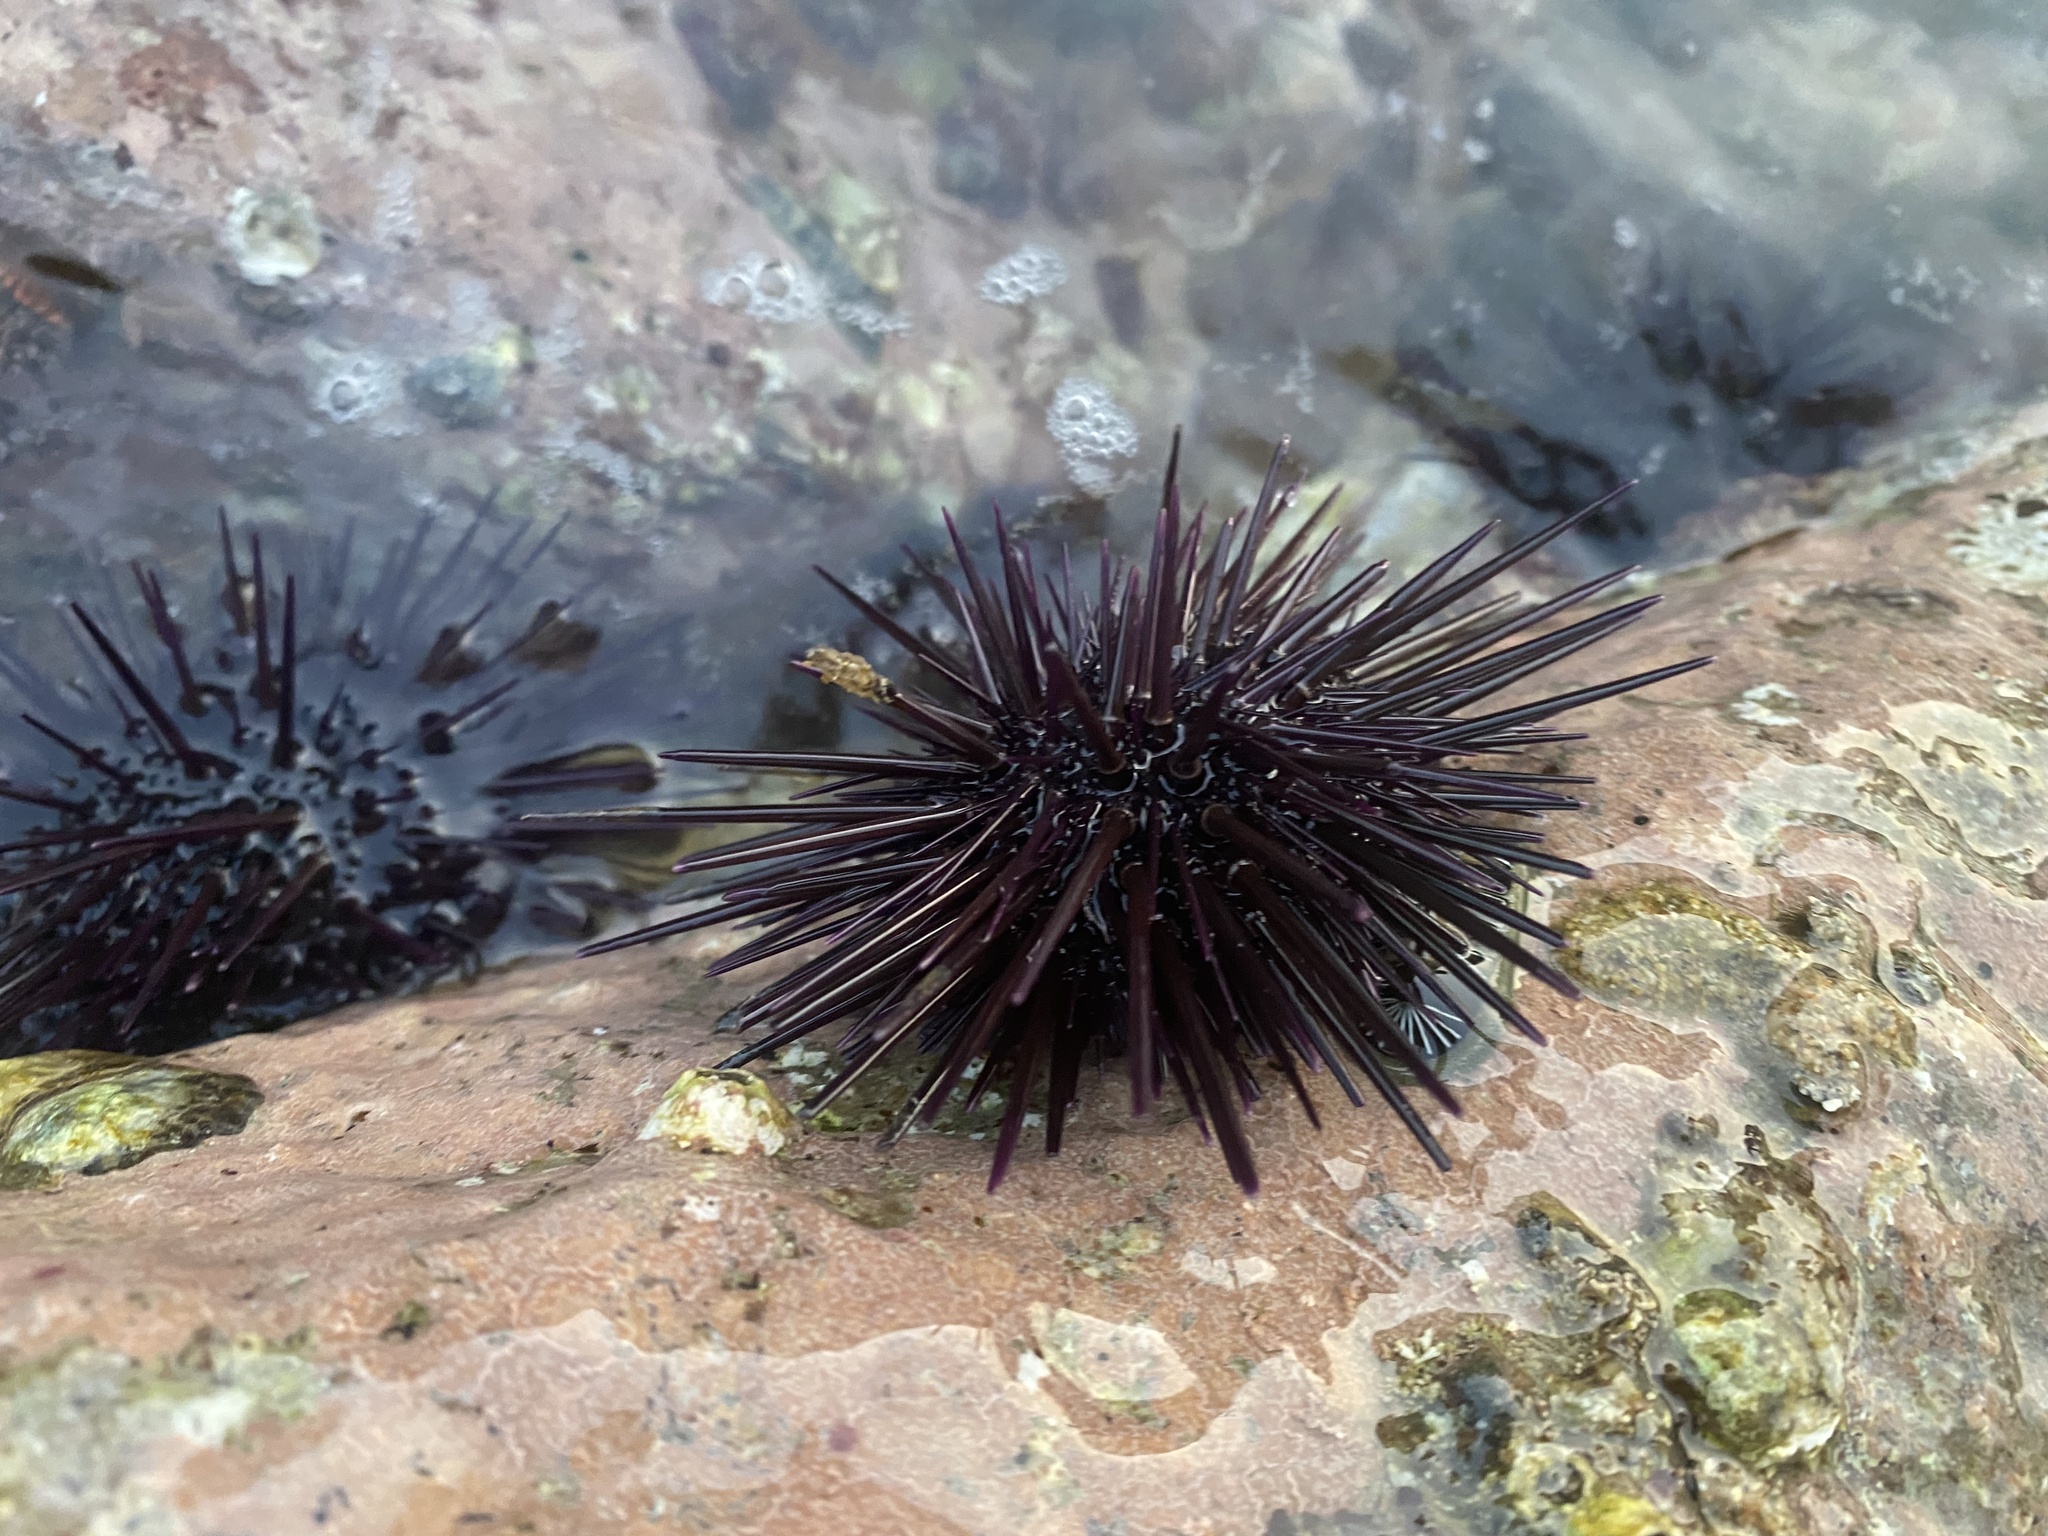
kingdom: Animalia
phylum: Echinodermata
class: Echinoidea
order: Camarodonta
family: Echinometridae
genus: Echinometra
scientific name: Echinometra vanbrunti
